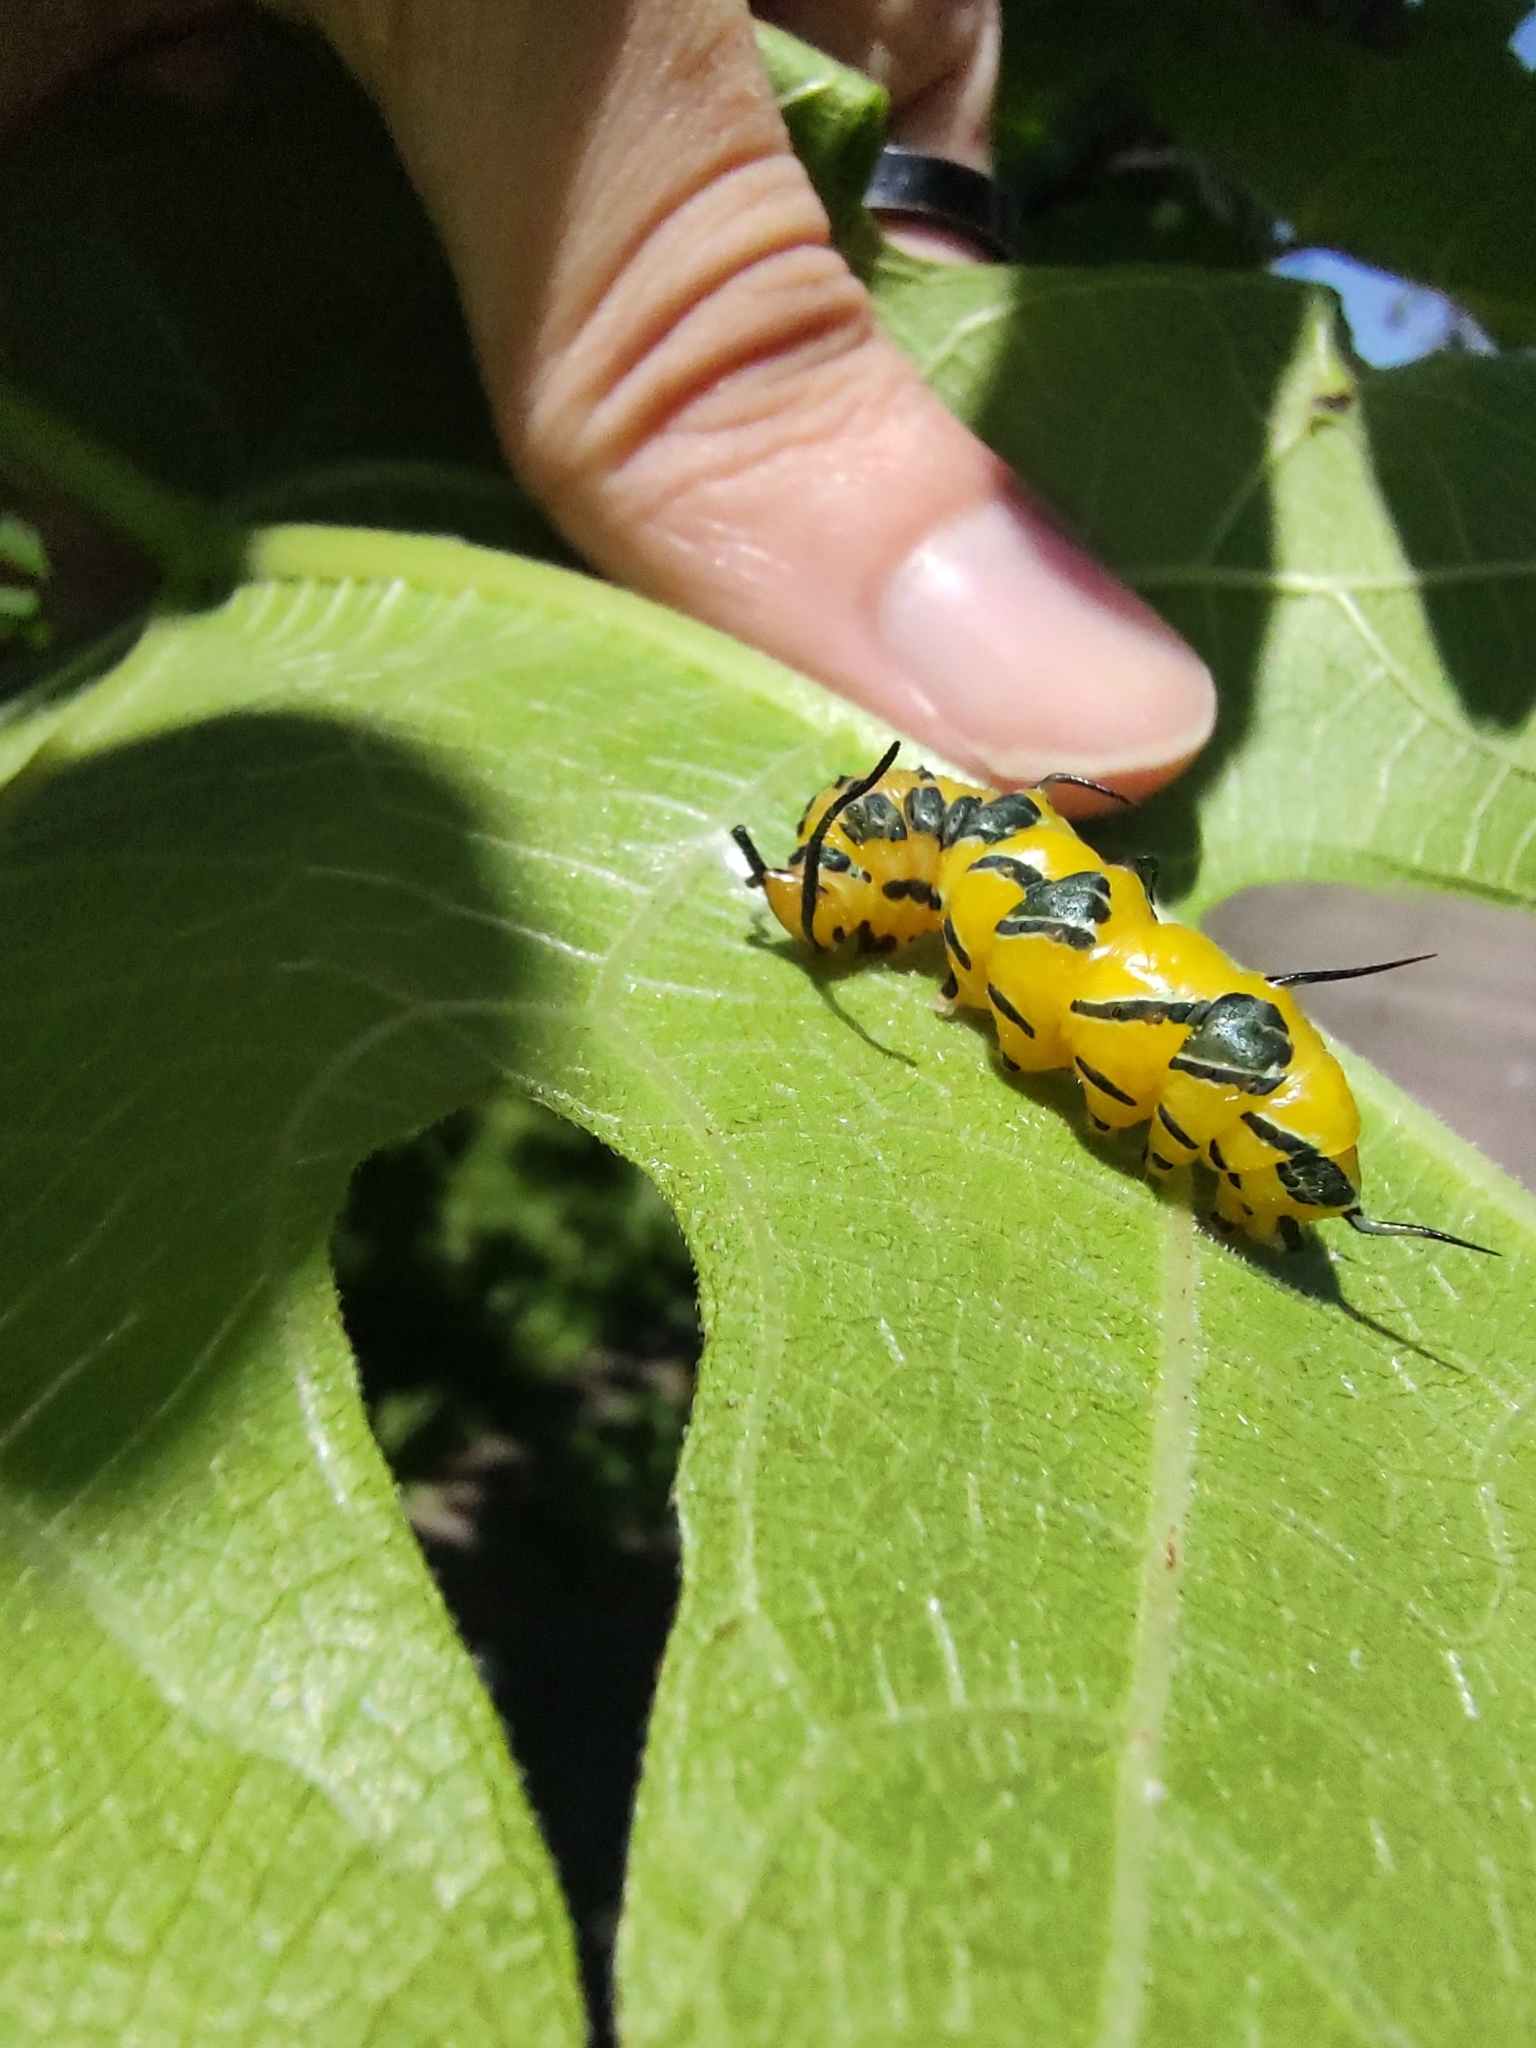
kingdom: Animalia
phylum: Arthropoda
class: Insecta
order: Lepidoptera
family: Nymphalidae
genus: Marpesia
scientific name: Marpesia petreus
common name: Red dagger wing
